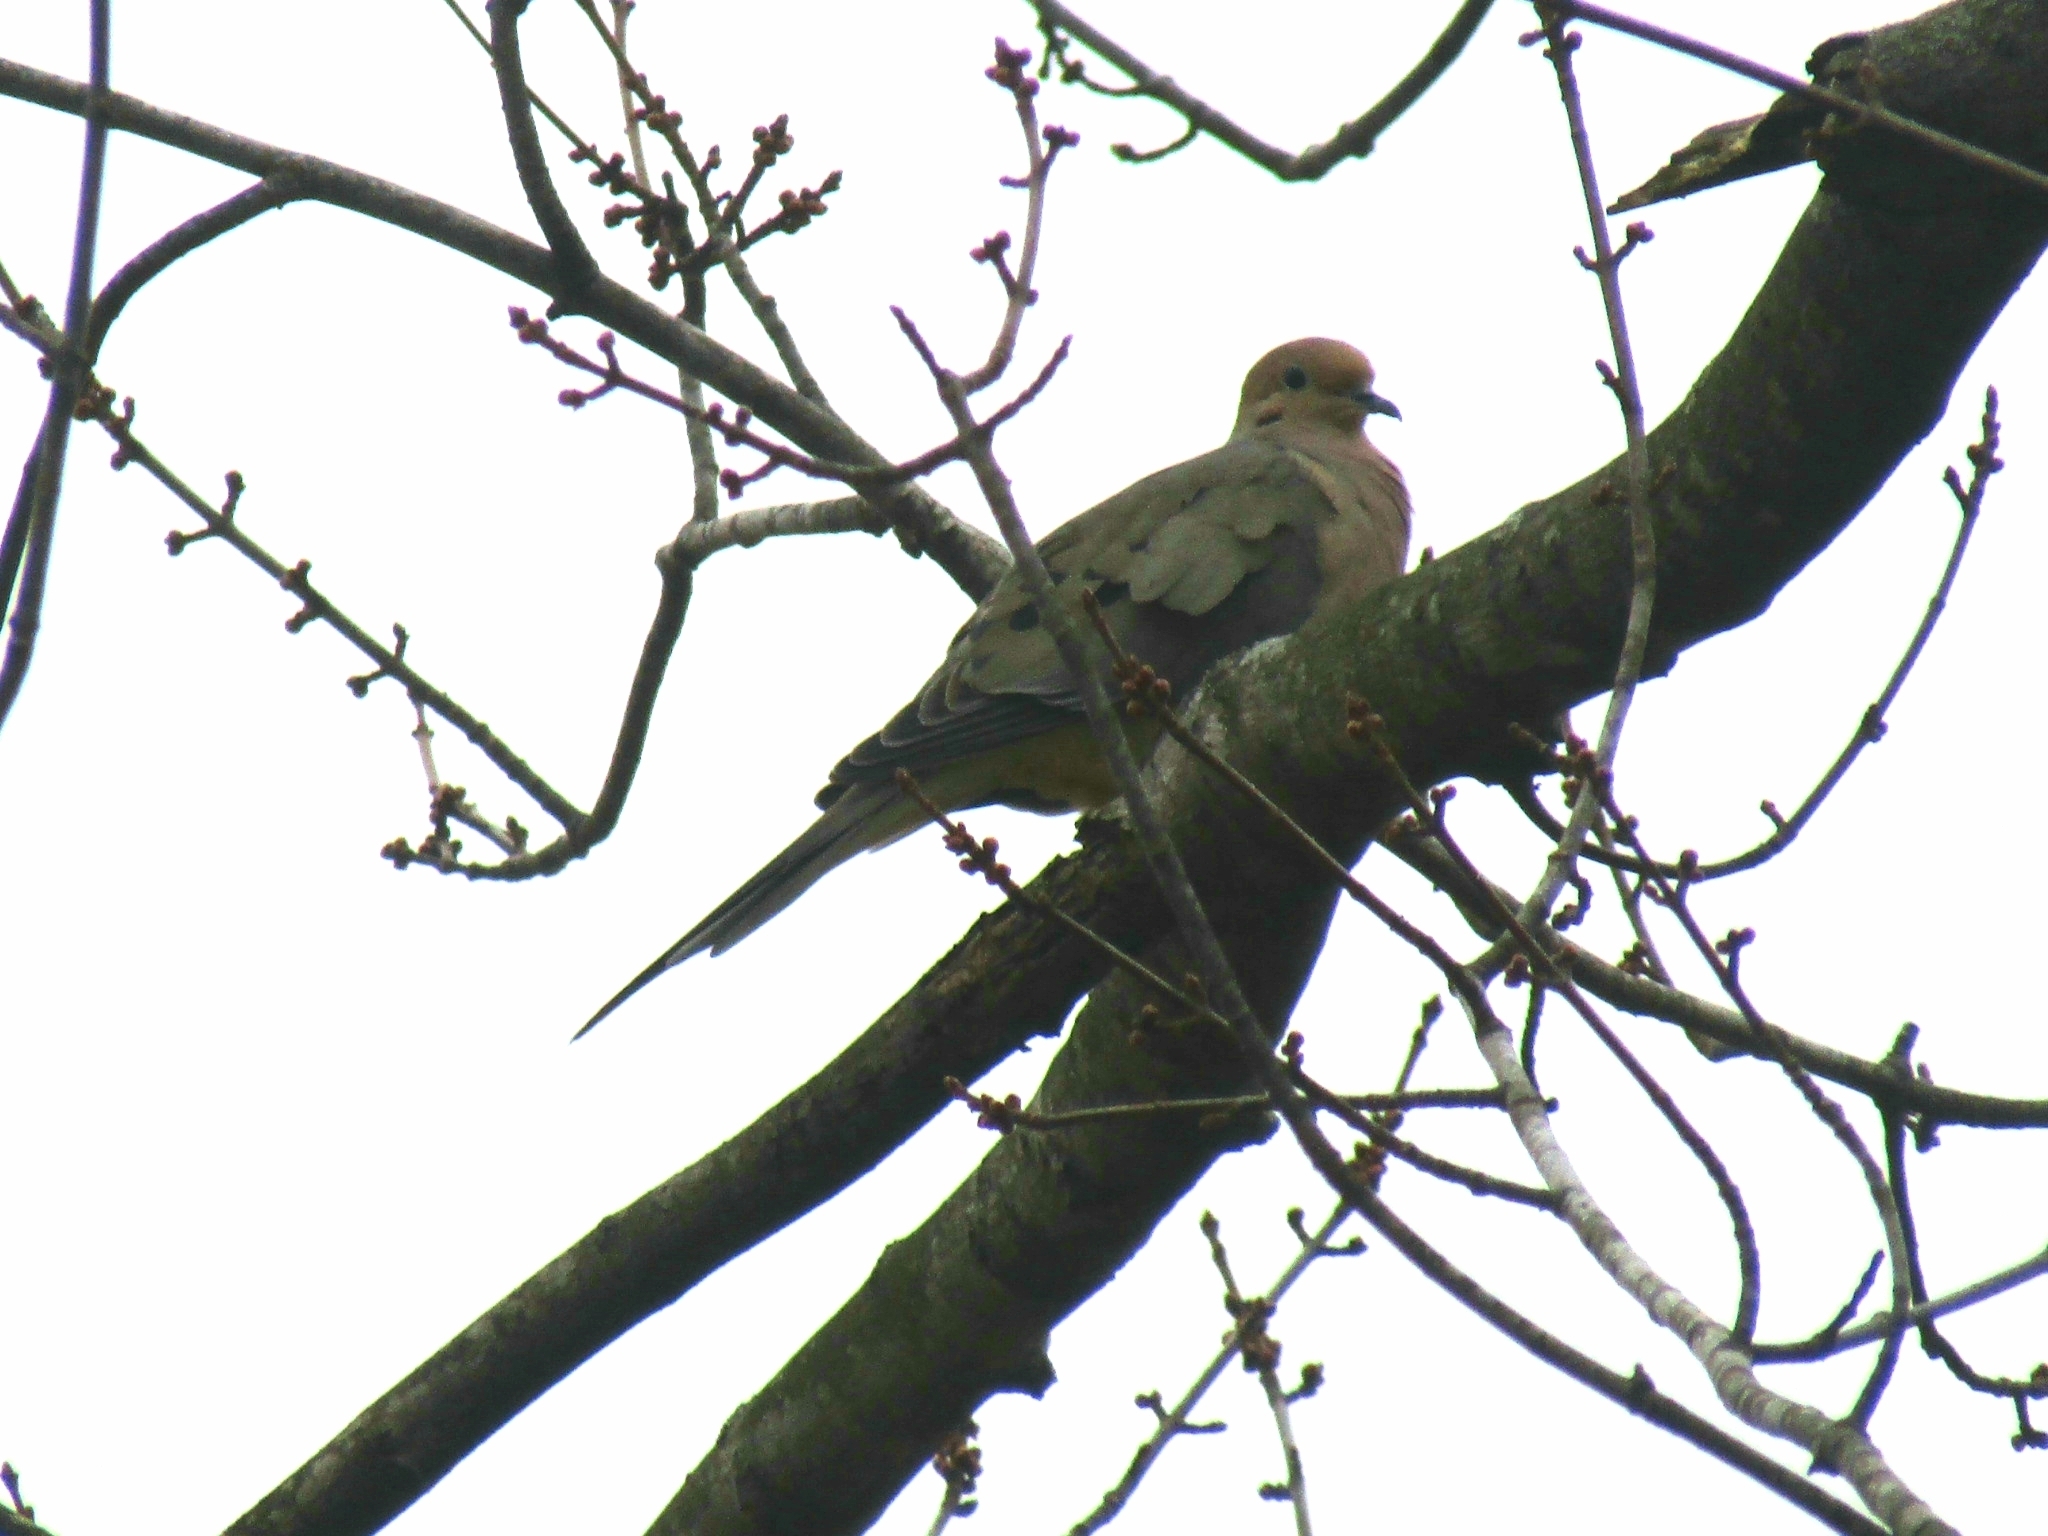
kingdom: Animalia
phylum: Chordata
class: Aves
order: Columbiformes
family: Columbidae
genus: Zenaida
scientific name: Zenaida macroura
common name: Mourning dove
